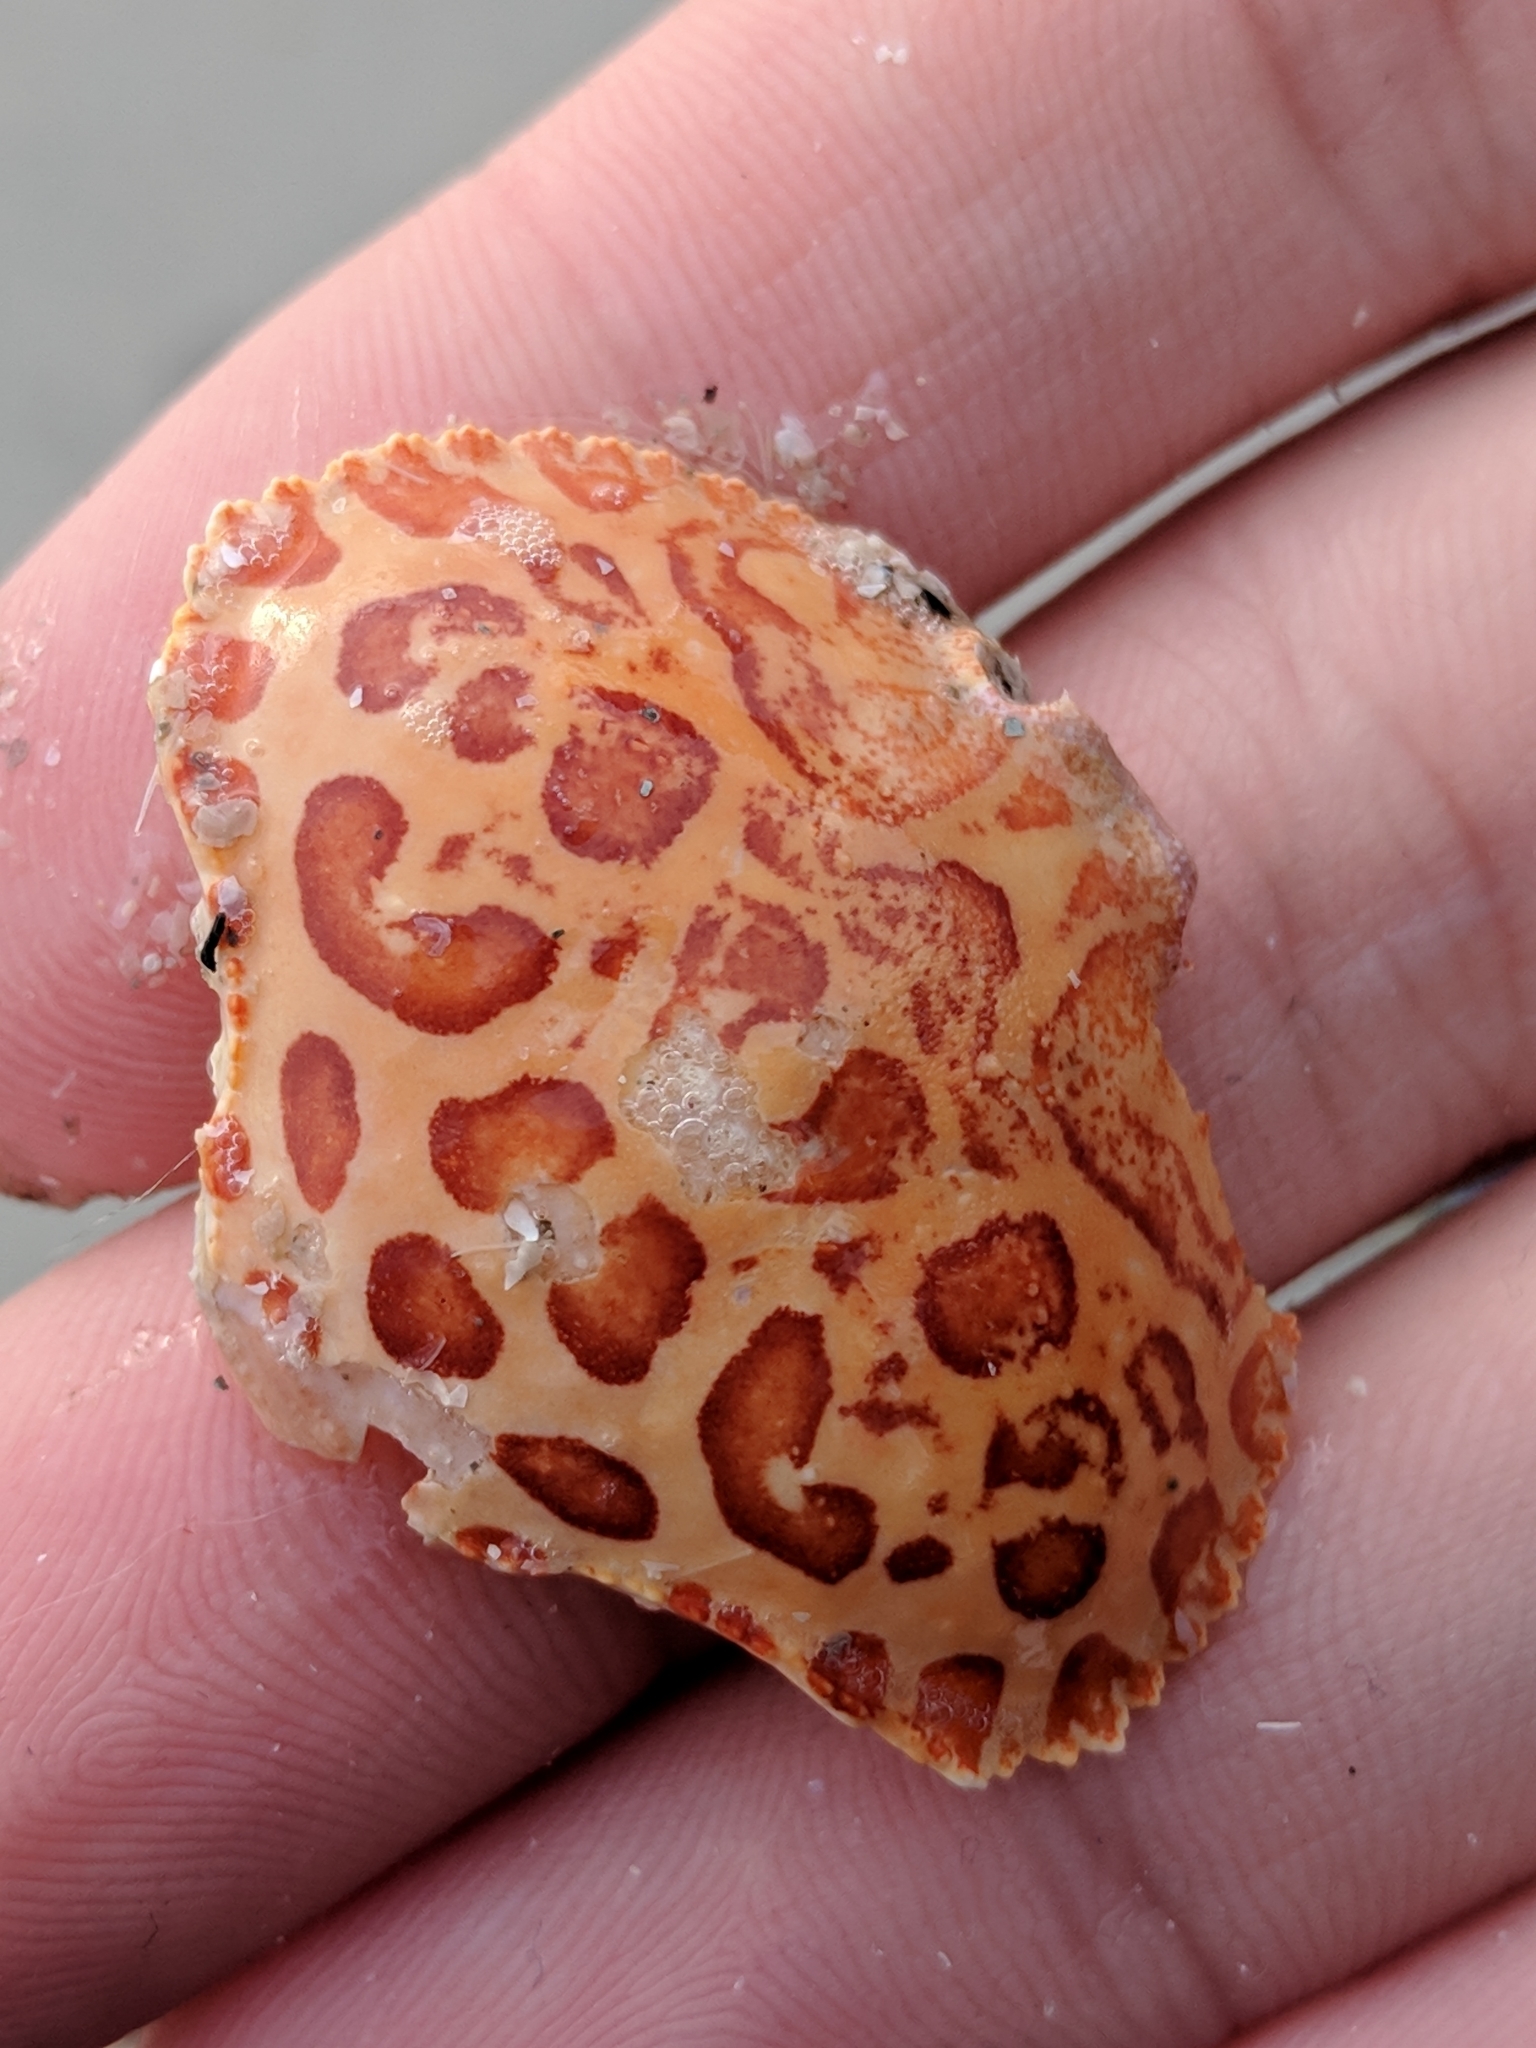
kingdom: Animalia
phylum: Arthropoda
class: Malacostraca
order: Decapoda
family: Aethridae
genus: Hepatus
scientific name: Hepatus epheliticus
